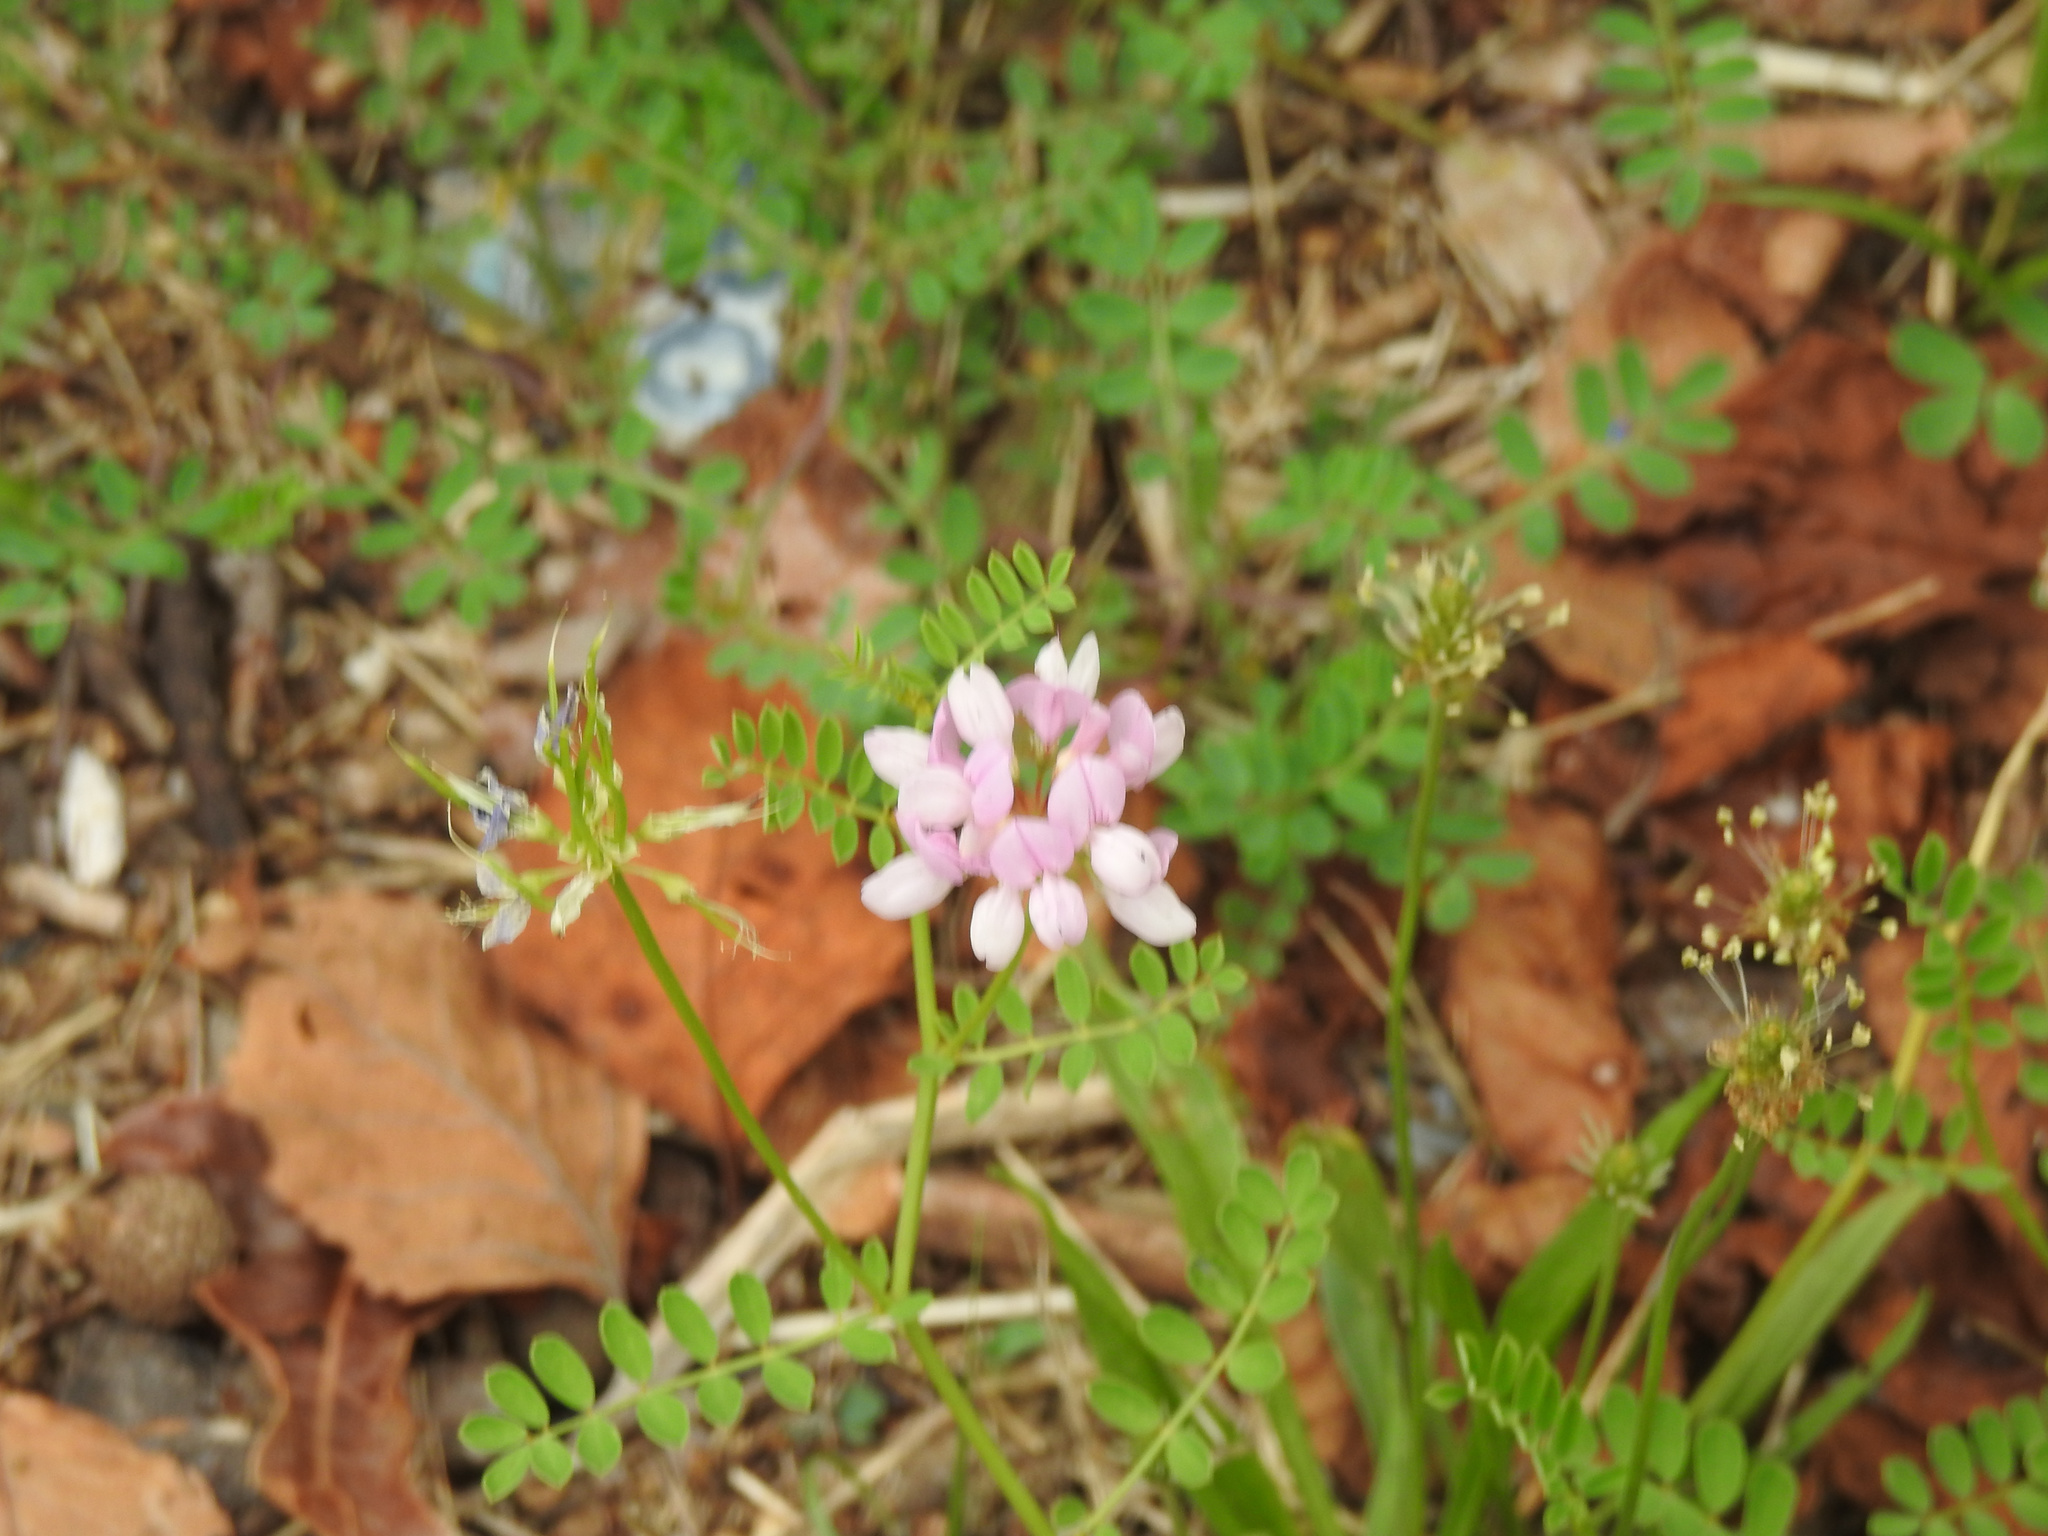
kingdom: Plantae
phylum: Tracheophyta
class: Magnoliopsida
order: Fabales
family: Fabaceae
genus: Coronilla
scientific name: Coronilla varia
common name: Crownvetch
